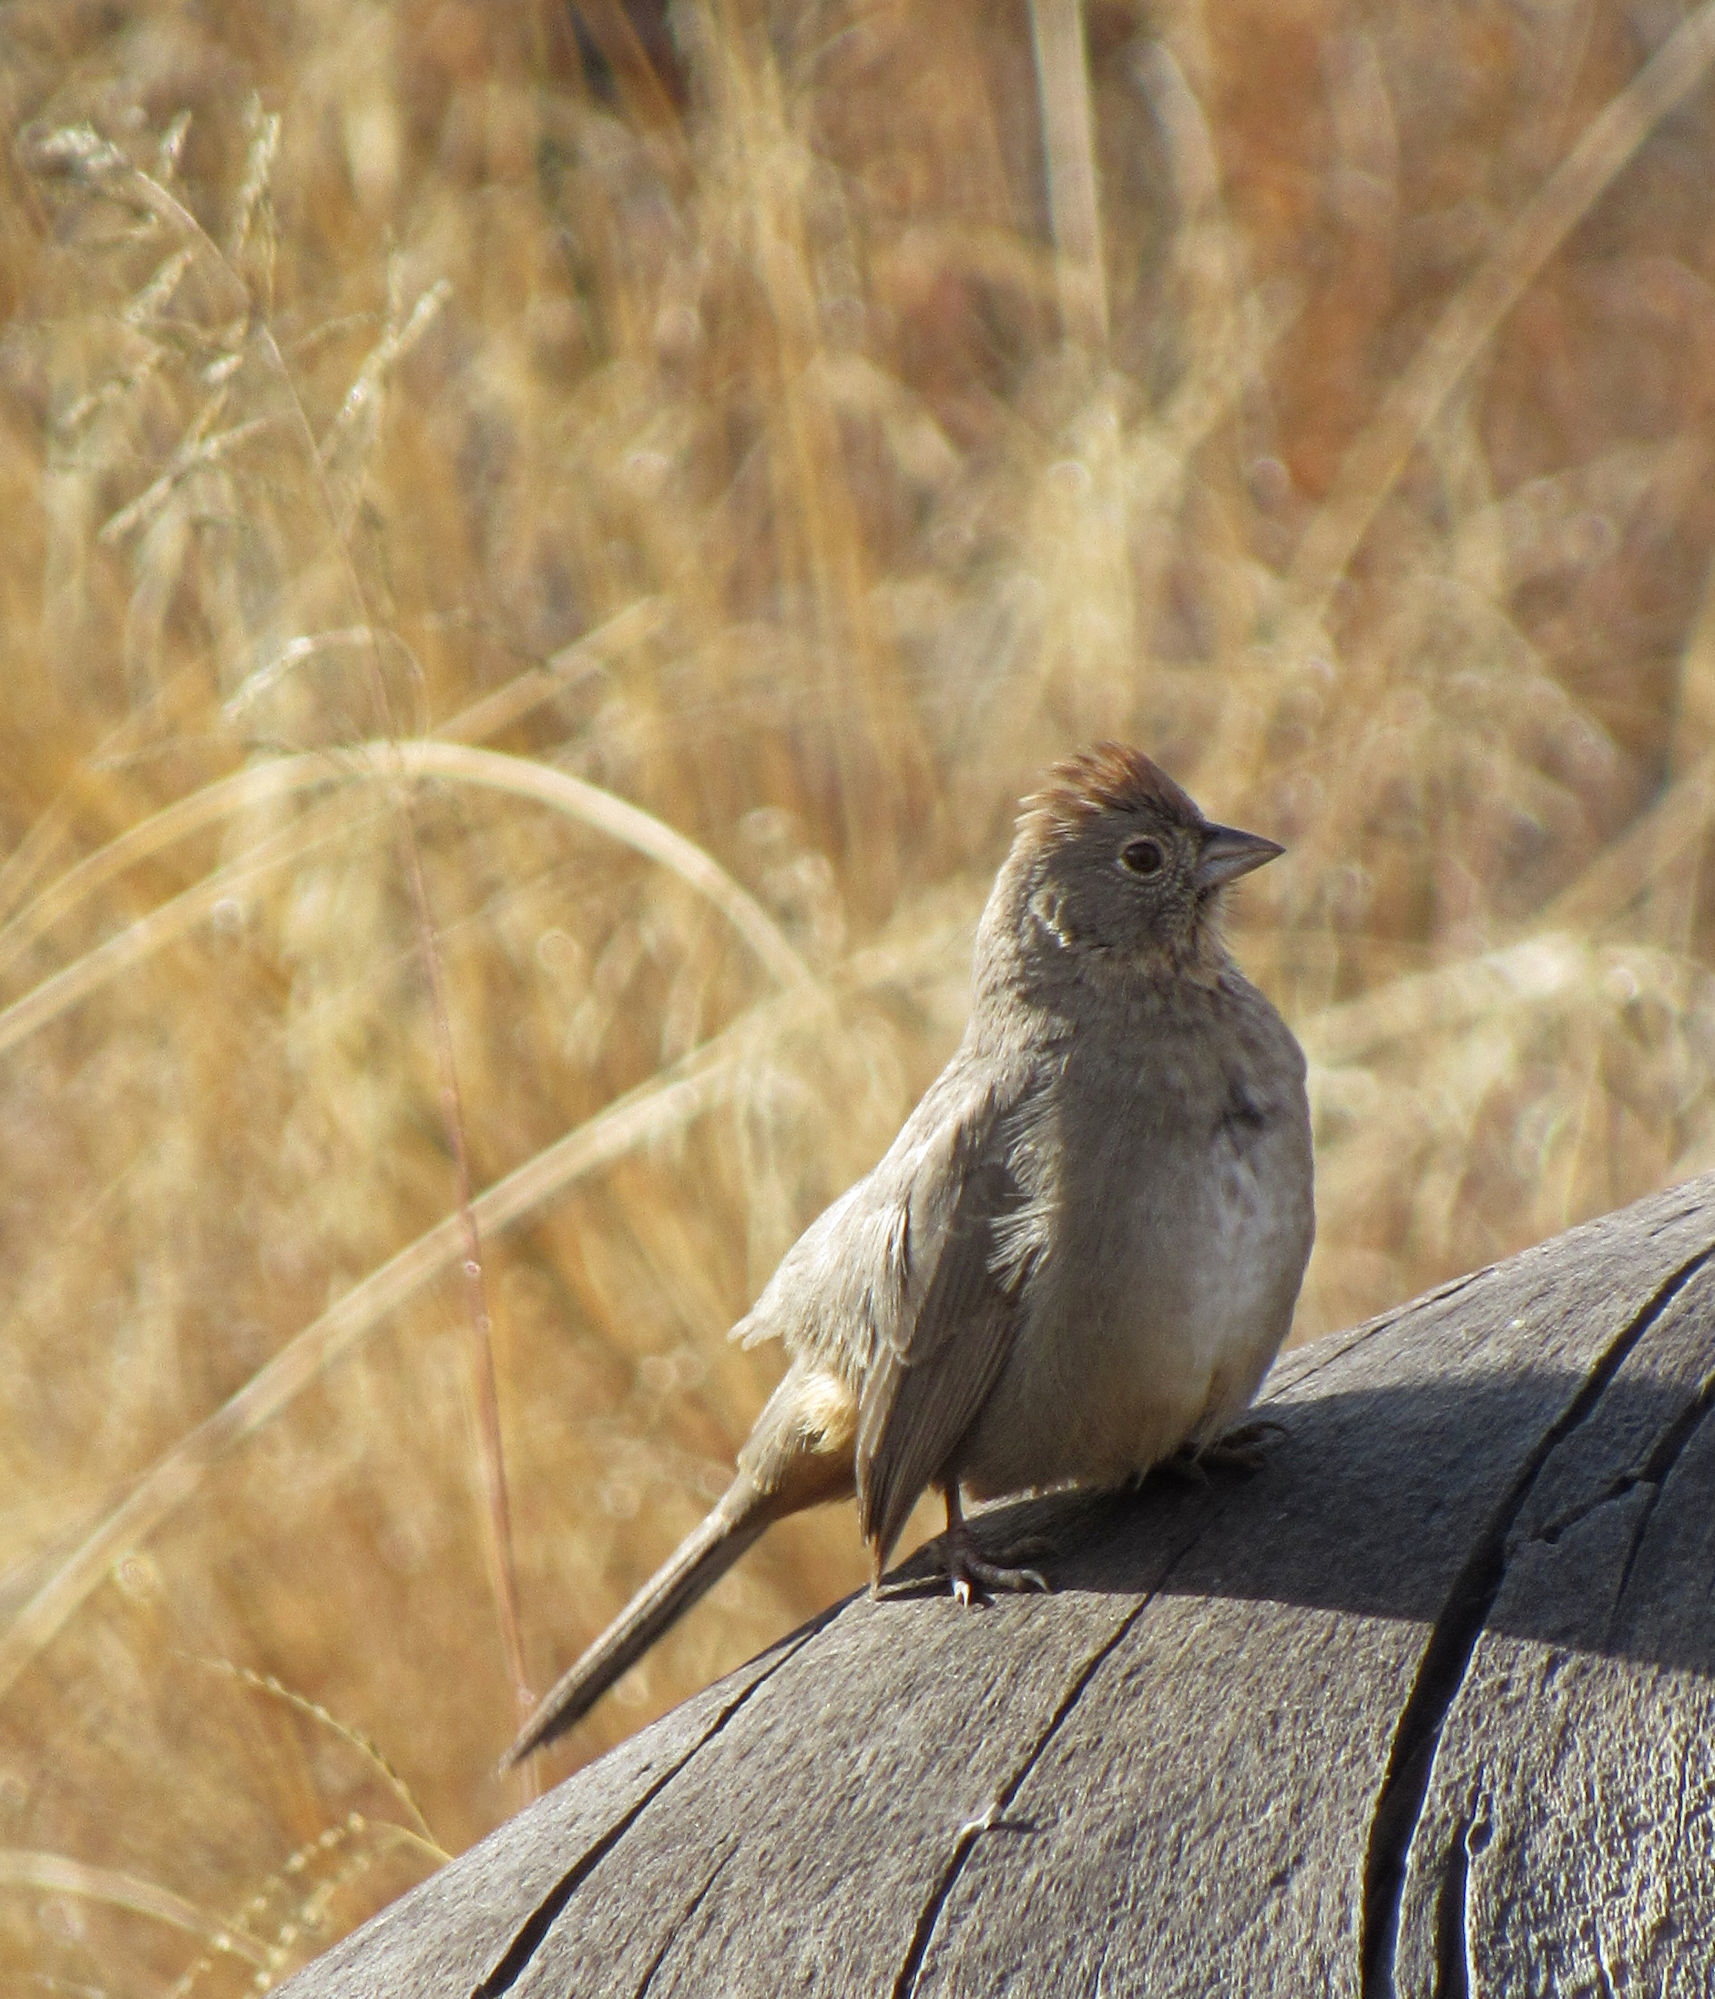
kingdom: Animalia
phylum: Chordata
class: Aves
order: Passeriformes
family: Passerellidae
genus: Melozone
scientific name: Melozone fusca
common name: Canyon towhee
